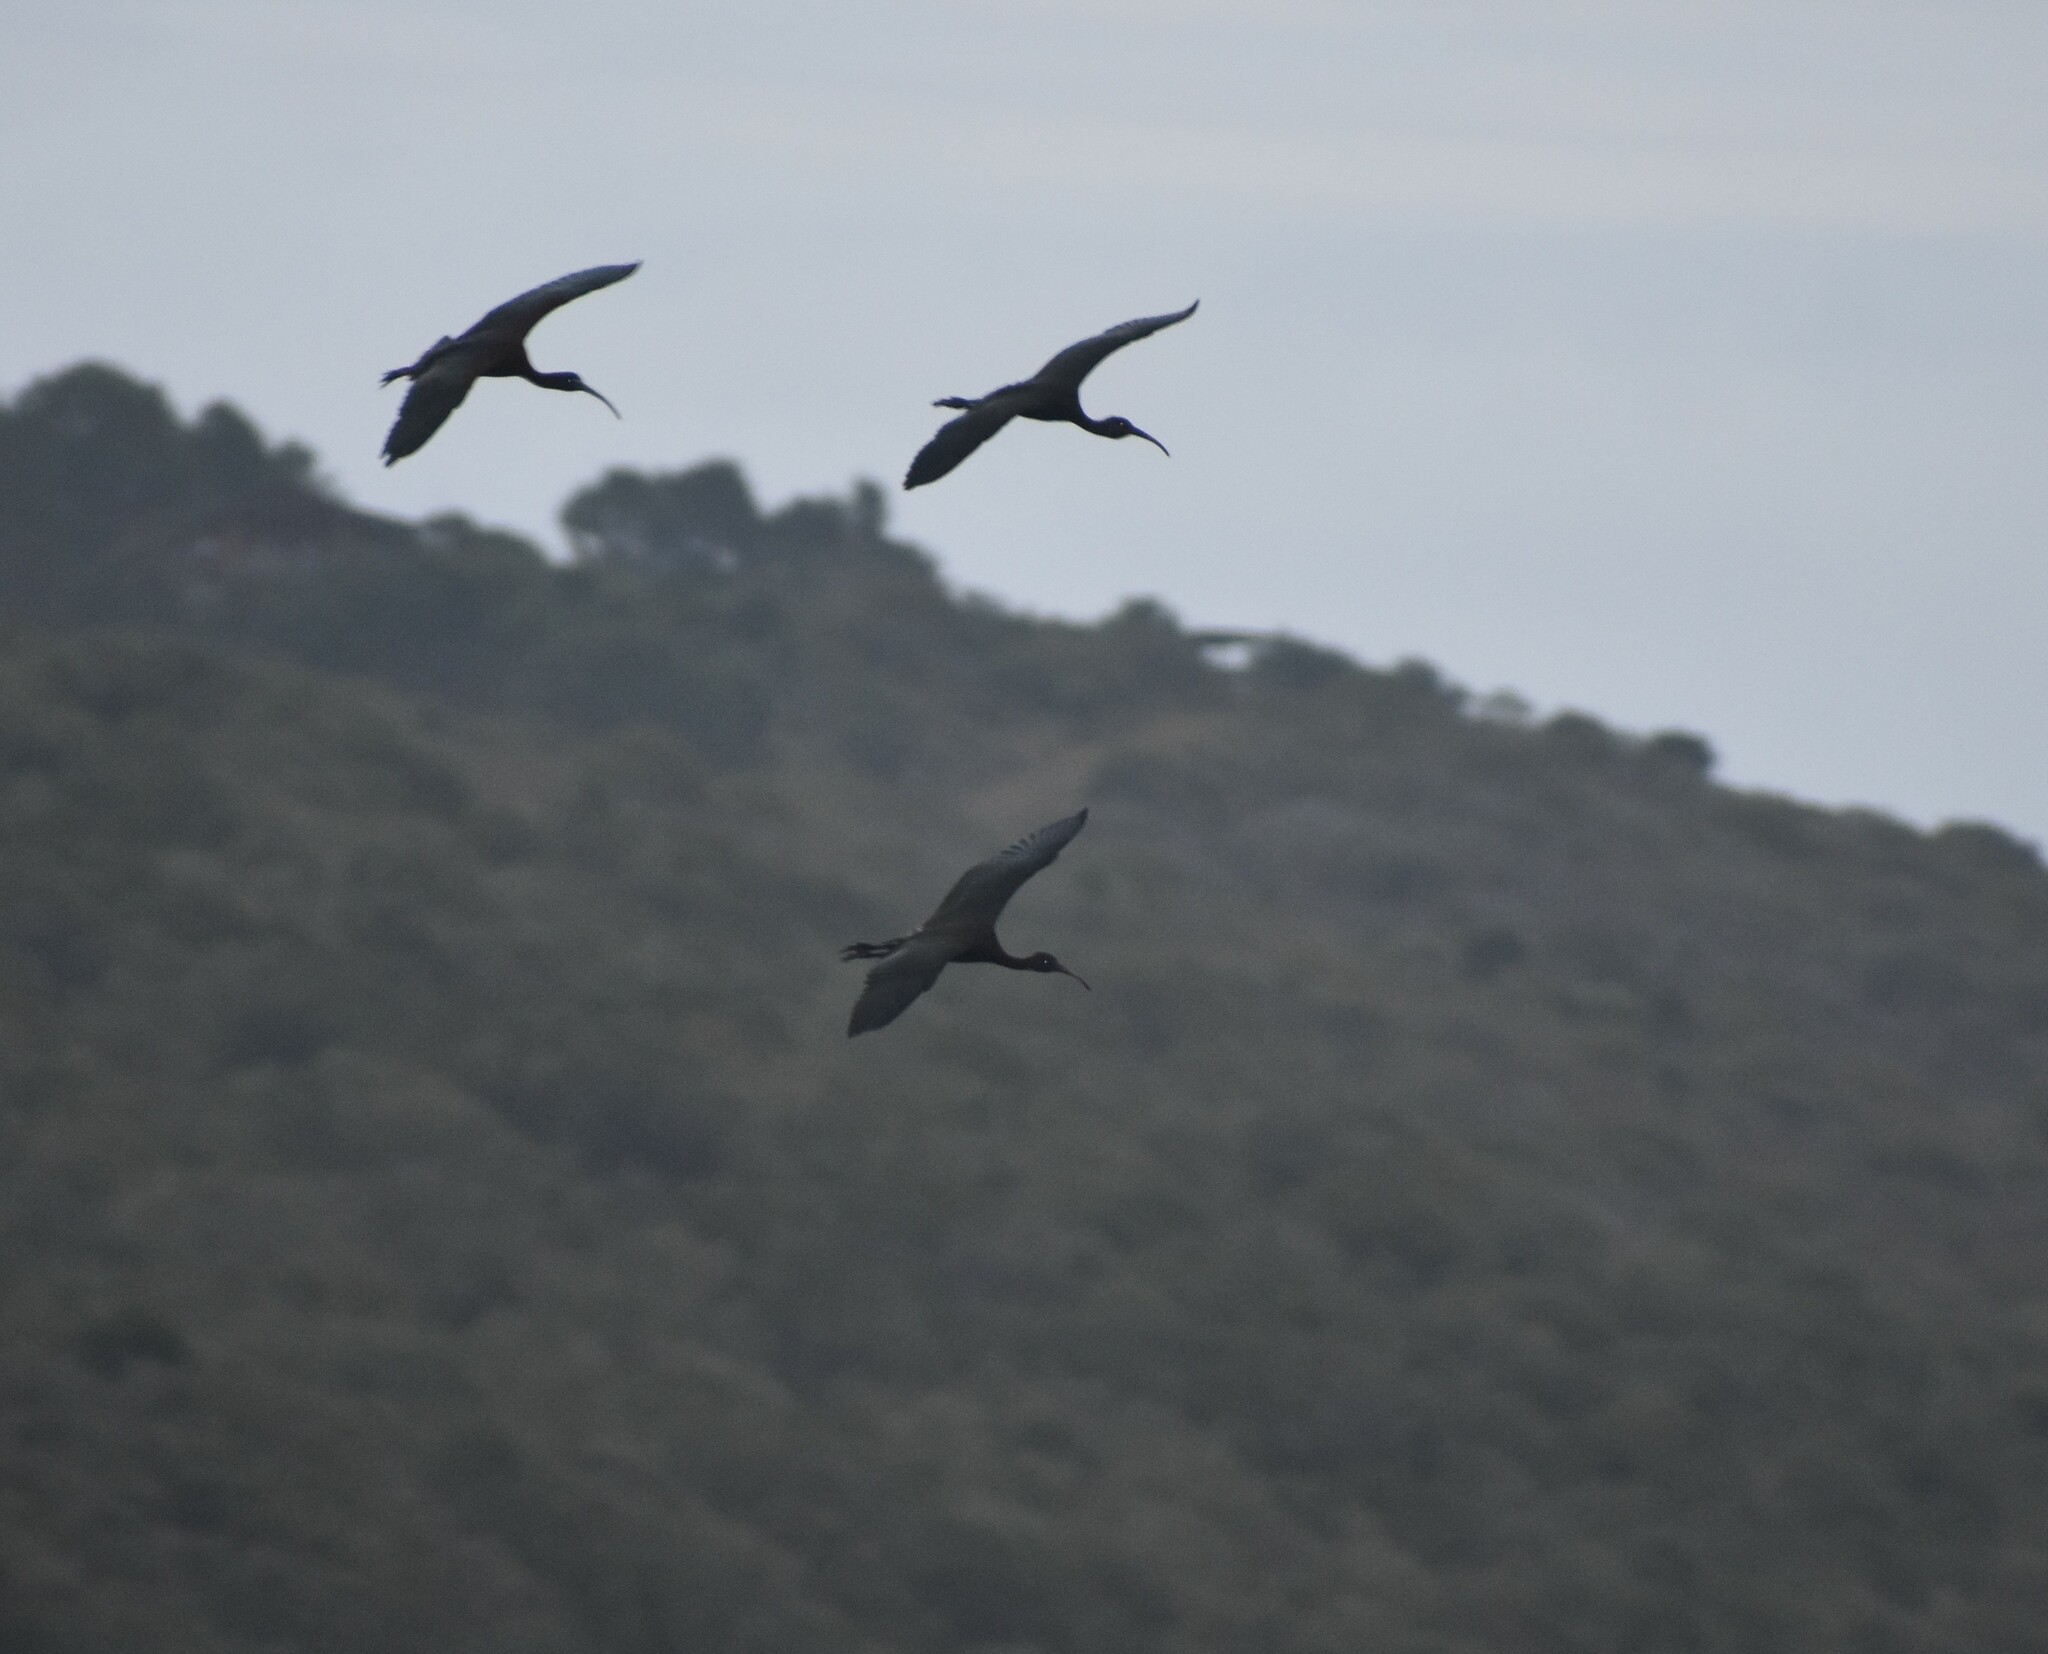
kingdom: Animalia
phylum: Chordata
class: Aves
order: Pelecaniformes
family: Threskiornithidae
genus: Plegadis
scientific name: Plegadis falcinellus
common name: Glossy ibis
